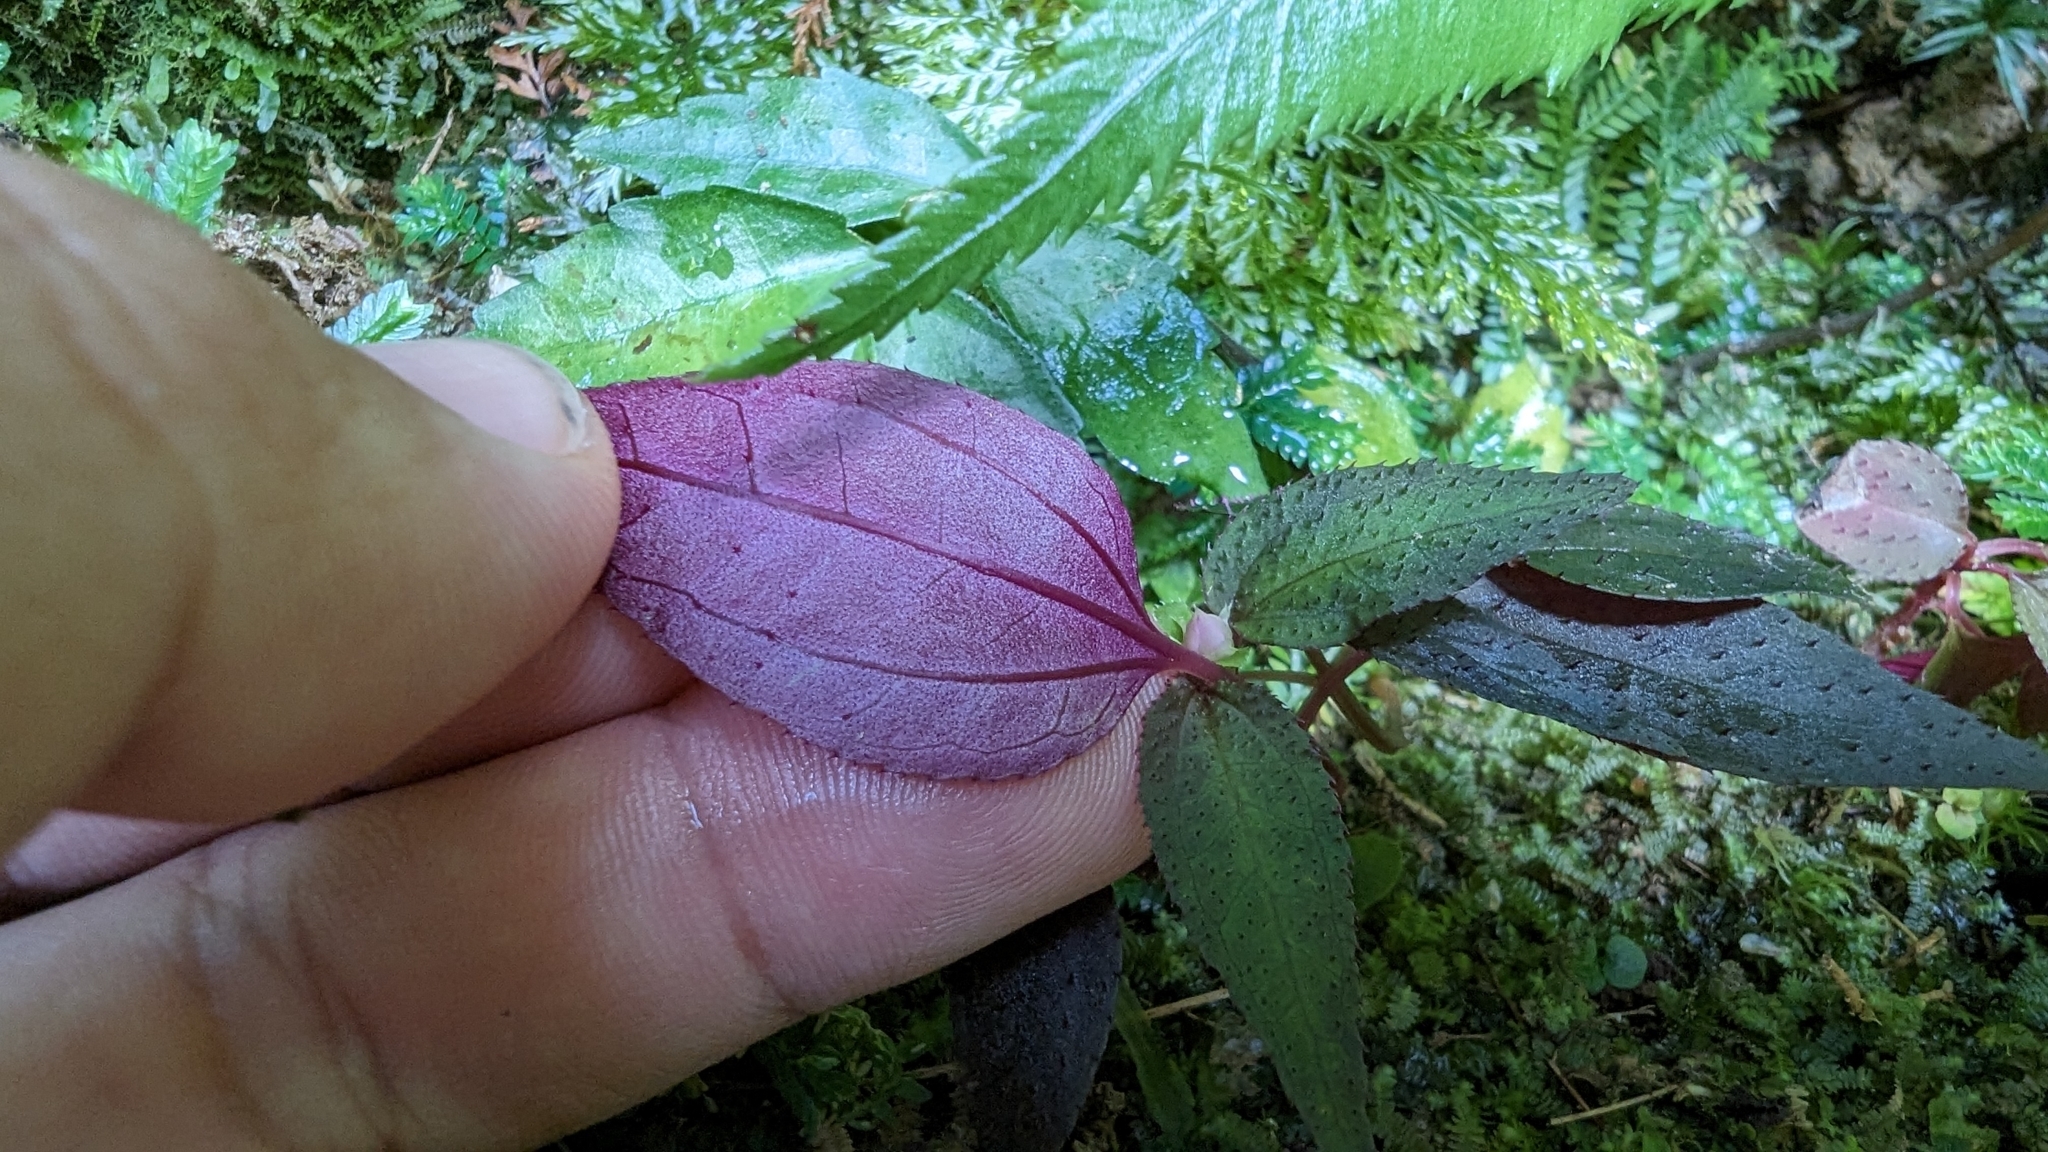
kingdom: Plantae
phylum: Tracheophyta
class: Magnoliopsida
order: Myrtales
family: Melastomataceae
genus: Sarcopyramis
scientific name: Sarcopyramis napalensis
